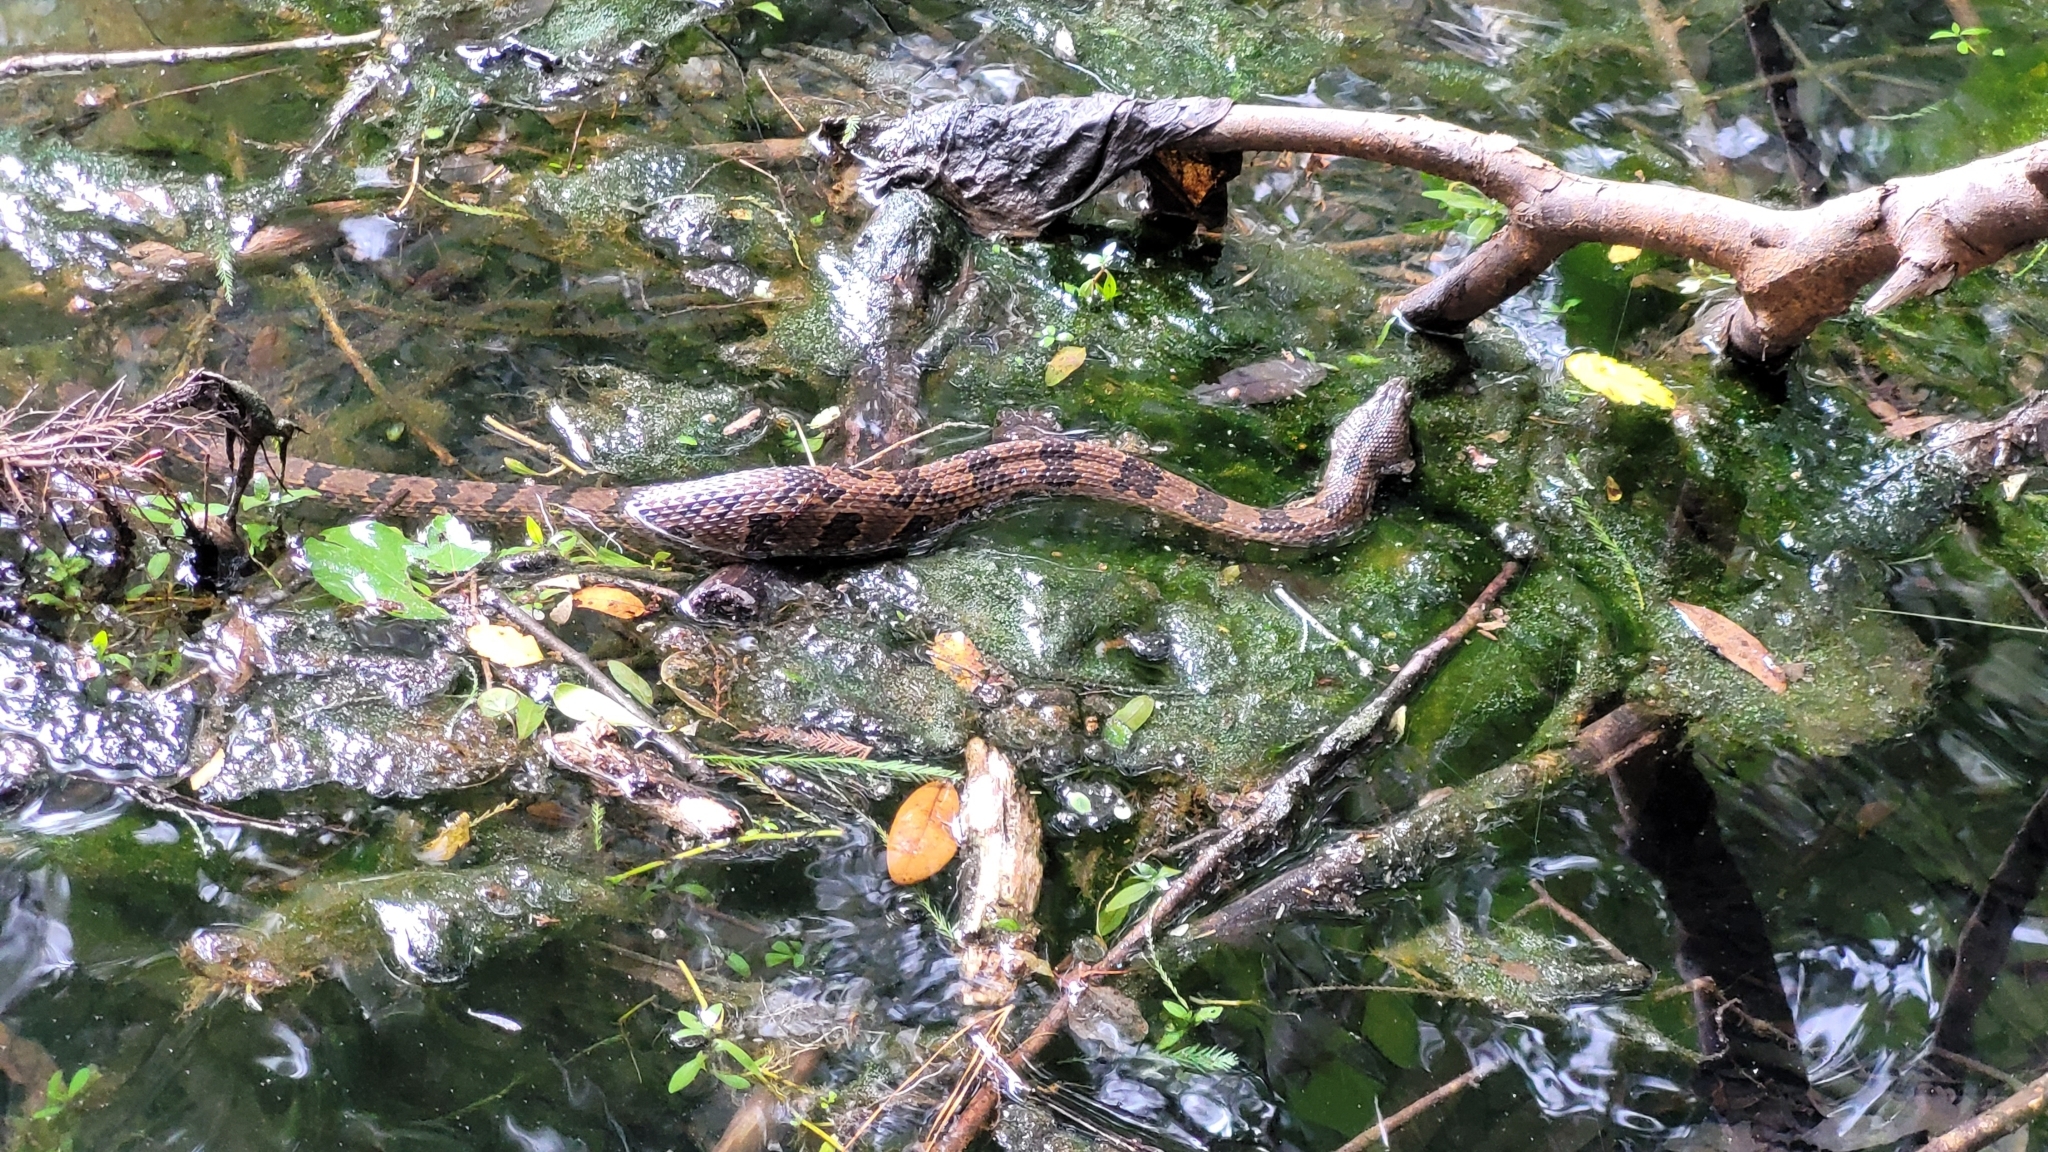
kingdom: Animalia
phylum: Chordata
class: Squamata
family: Colubridae
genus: Nerodia
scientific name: Nerodia taxispilota
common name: Brown water snake
